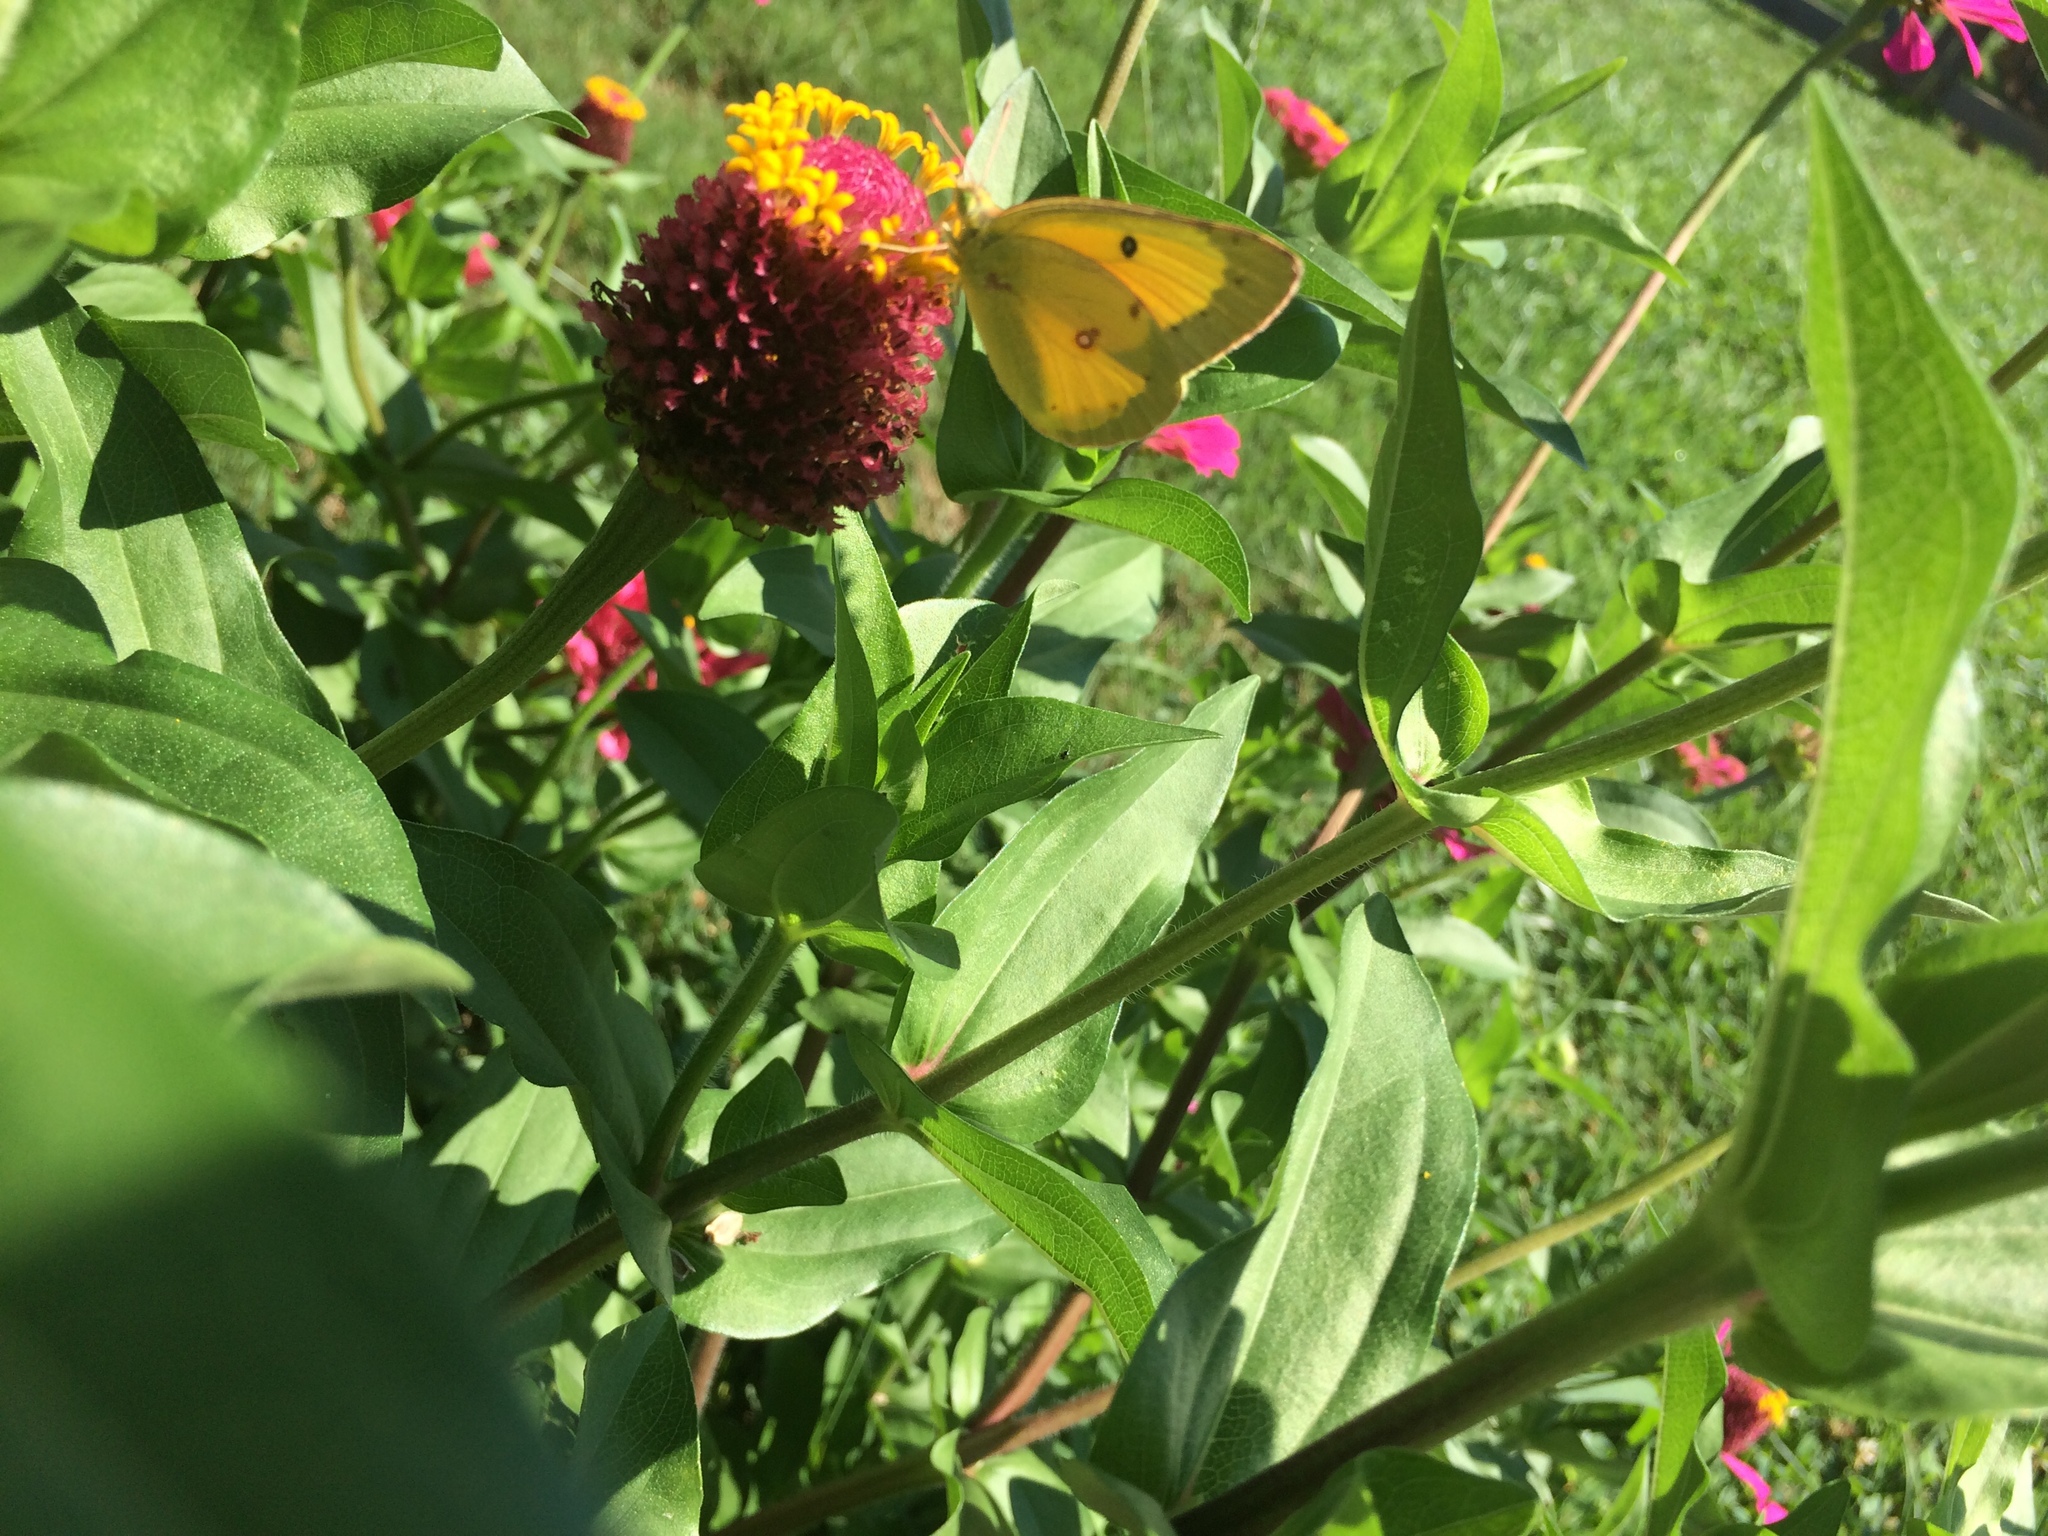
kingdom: Animalia
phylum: Arthropoda
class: Insecta
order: Lepidoptera
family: Pieridae
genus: Colias
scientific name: Colias eurytheme
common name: Alfalfa butterfly
